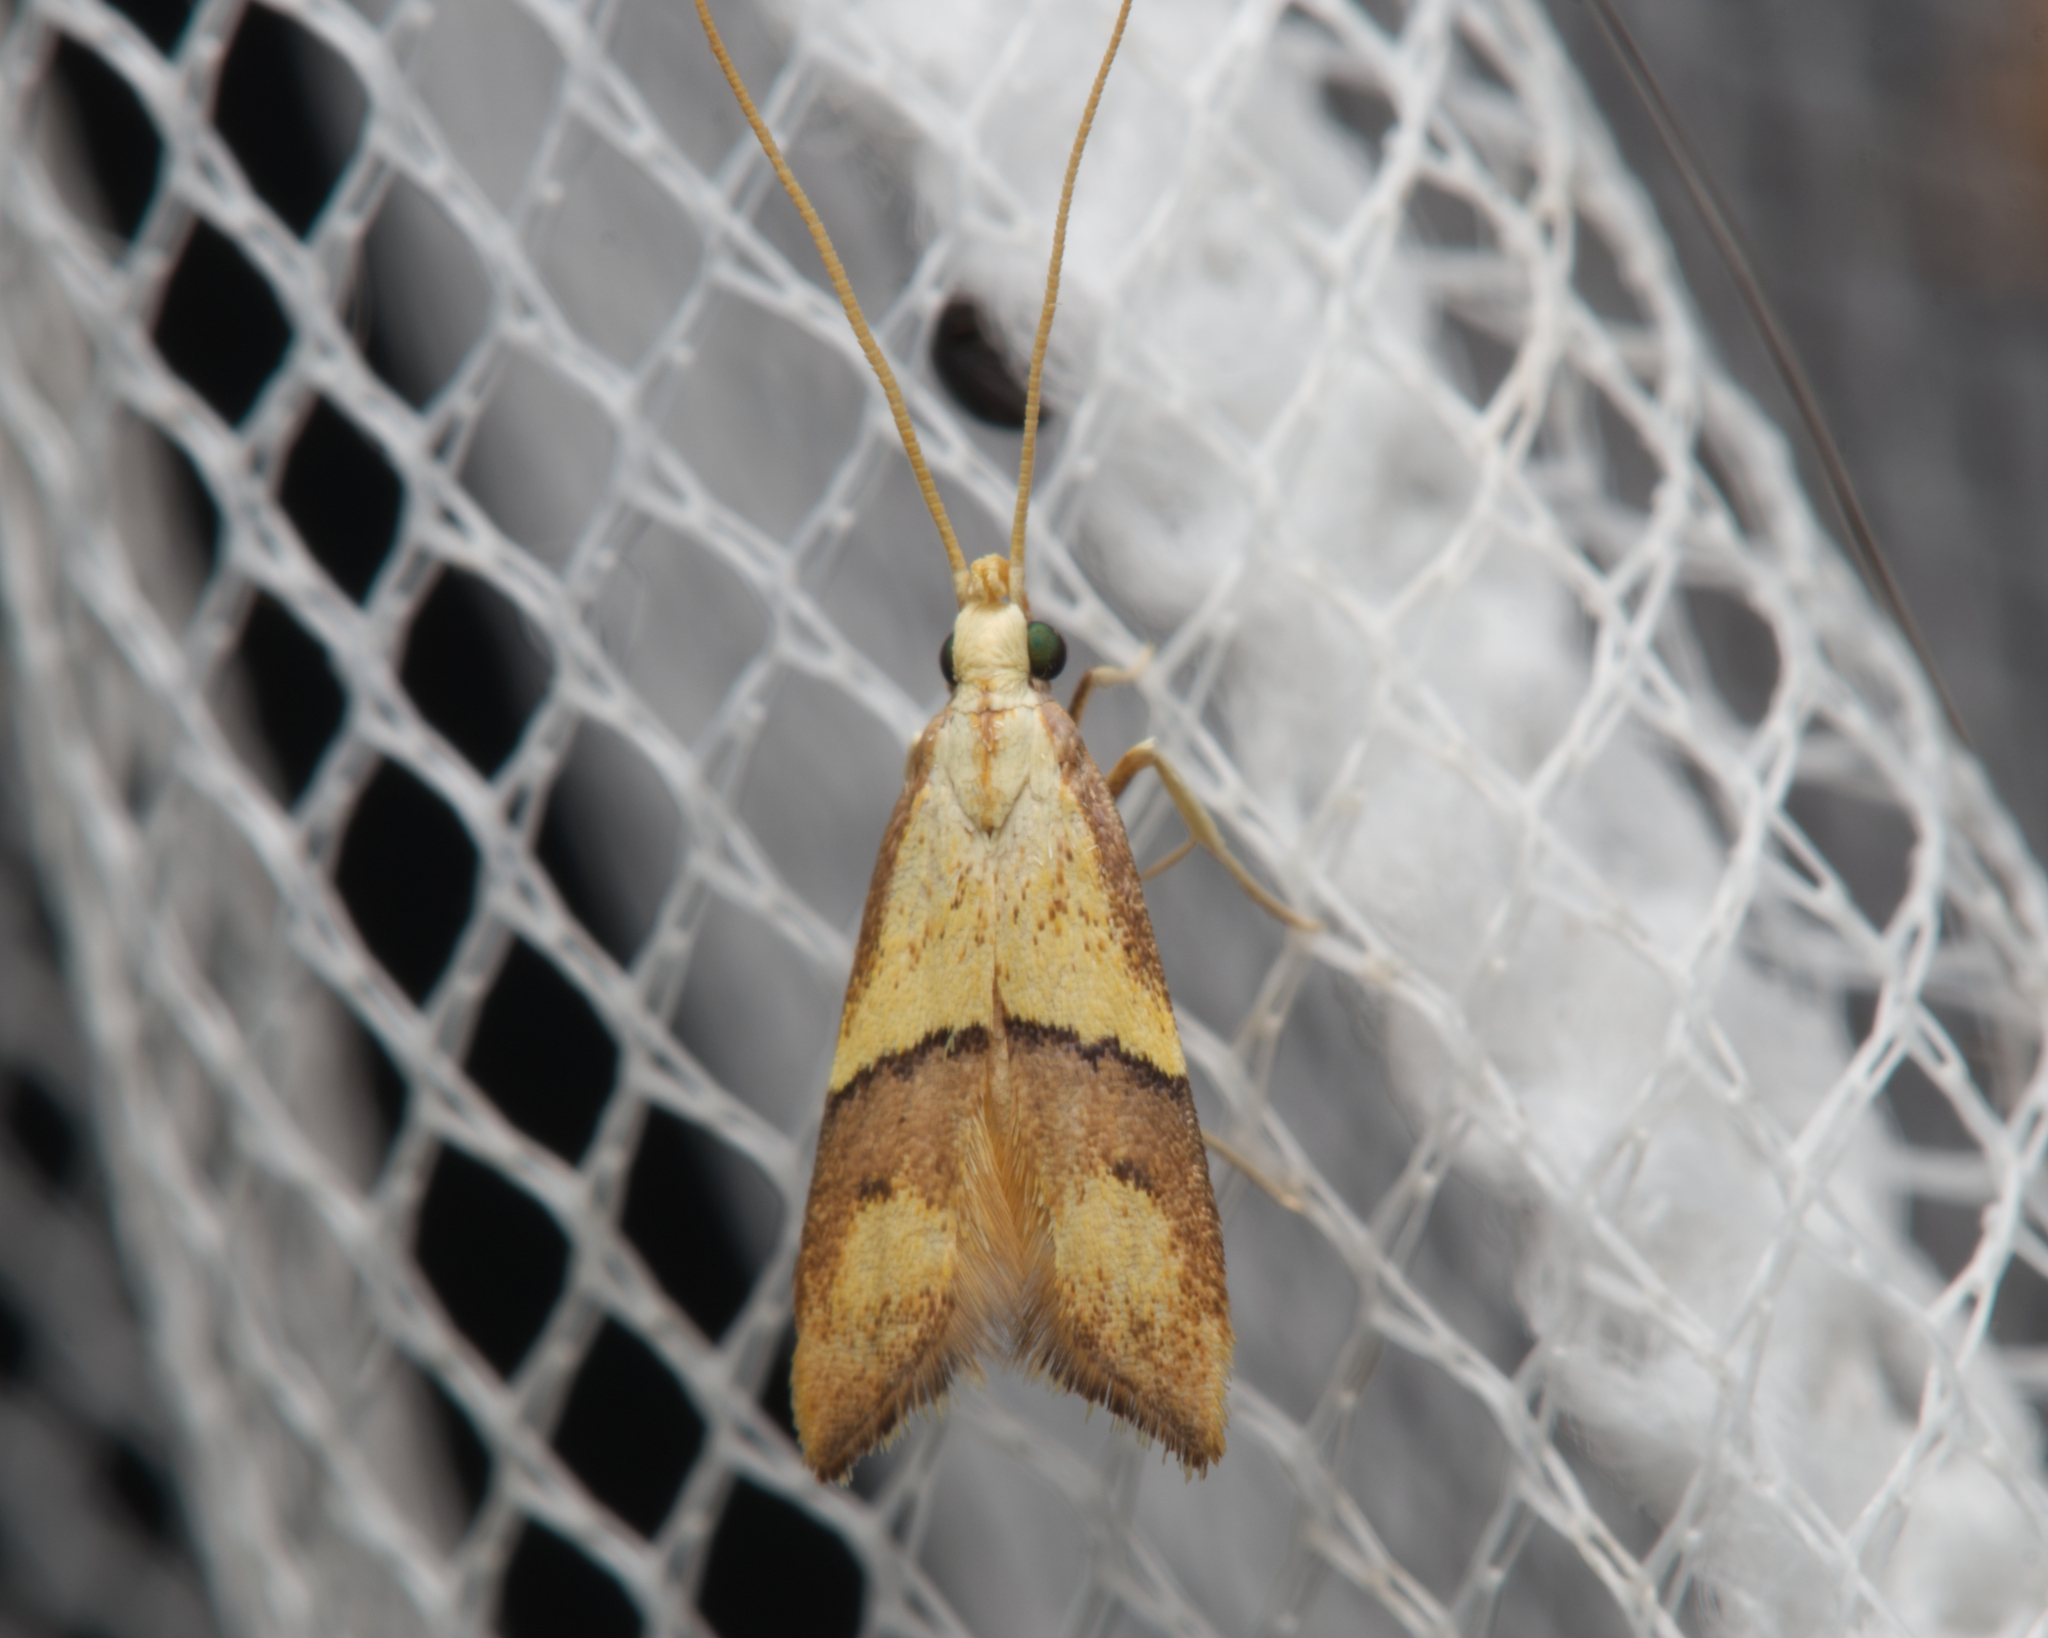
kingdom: Animalia
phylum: Arthropoda
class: Insecta
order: Lepidoptera
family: Lecithoceridae
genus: Crocanthes
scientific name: Crocanthes prasinopis
